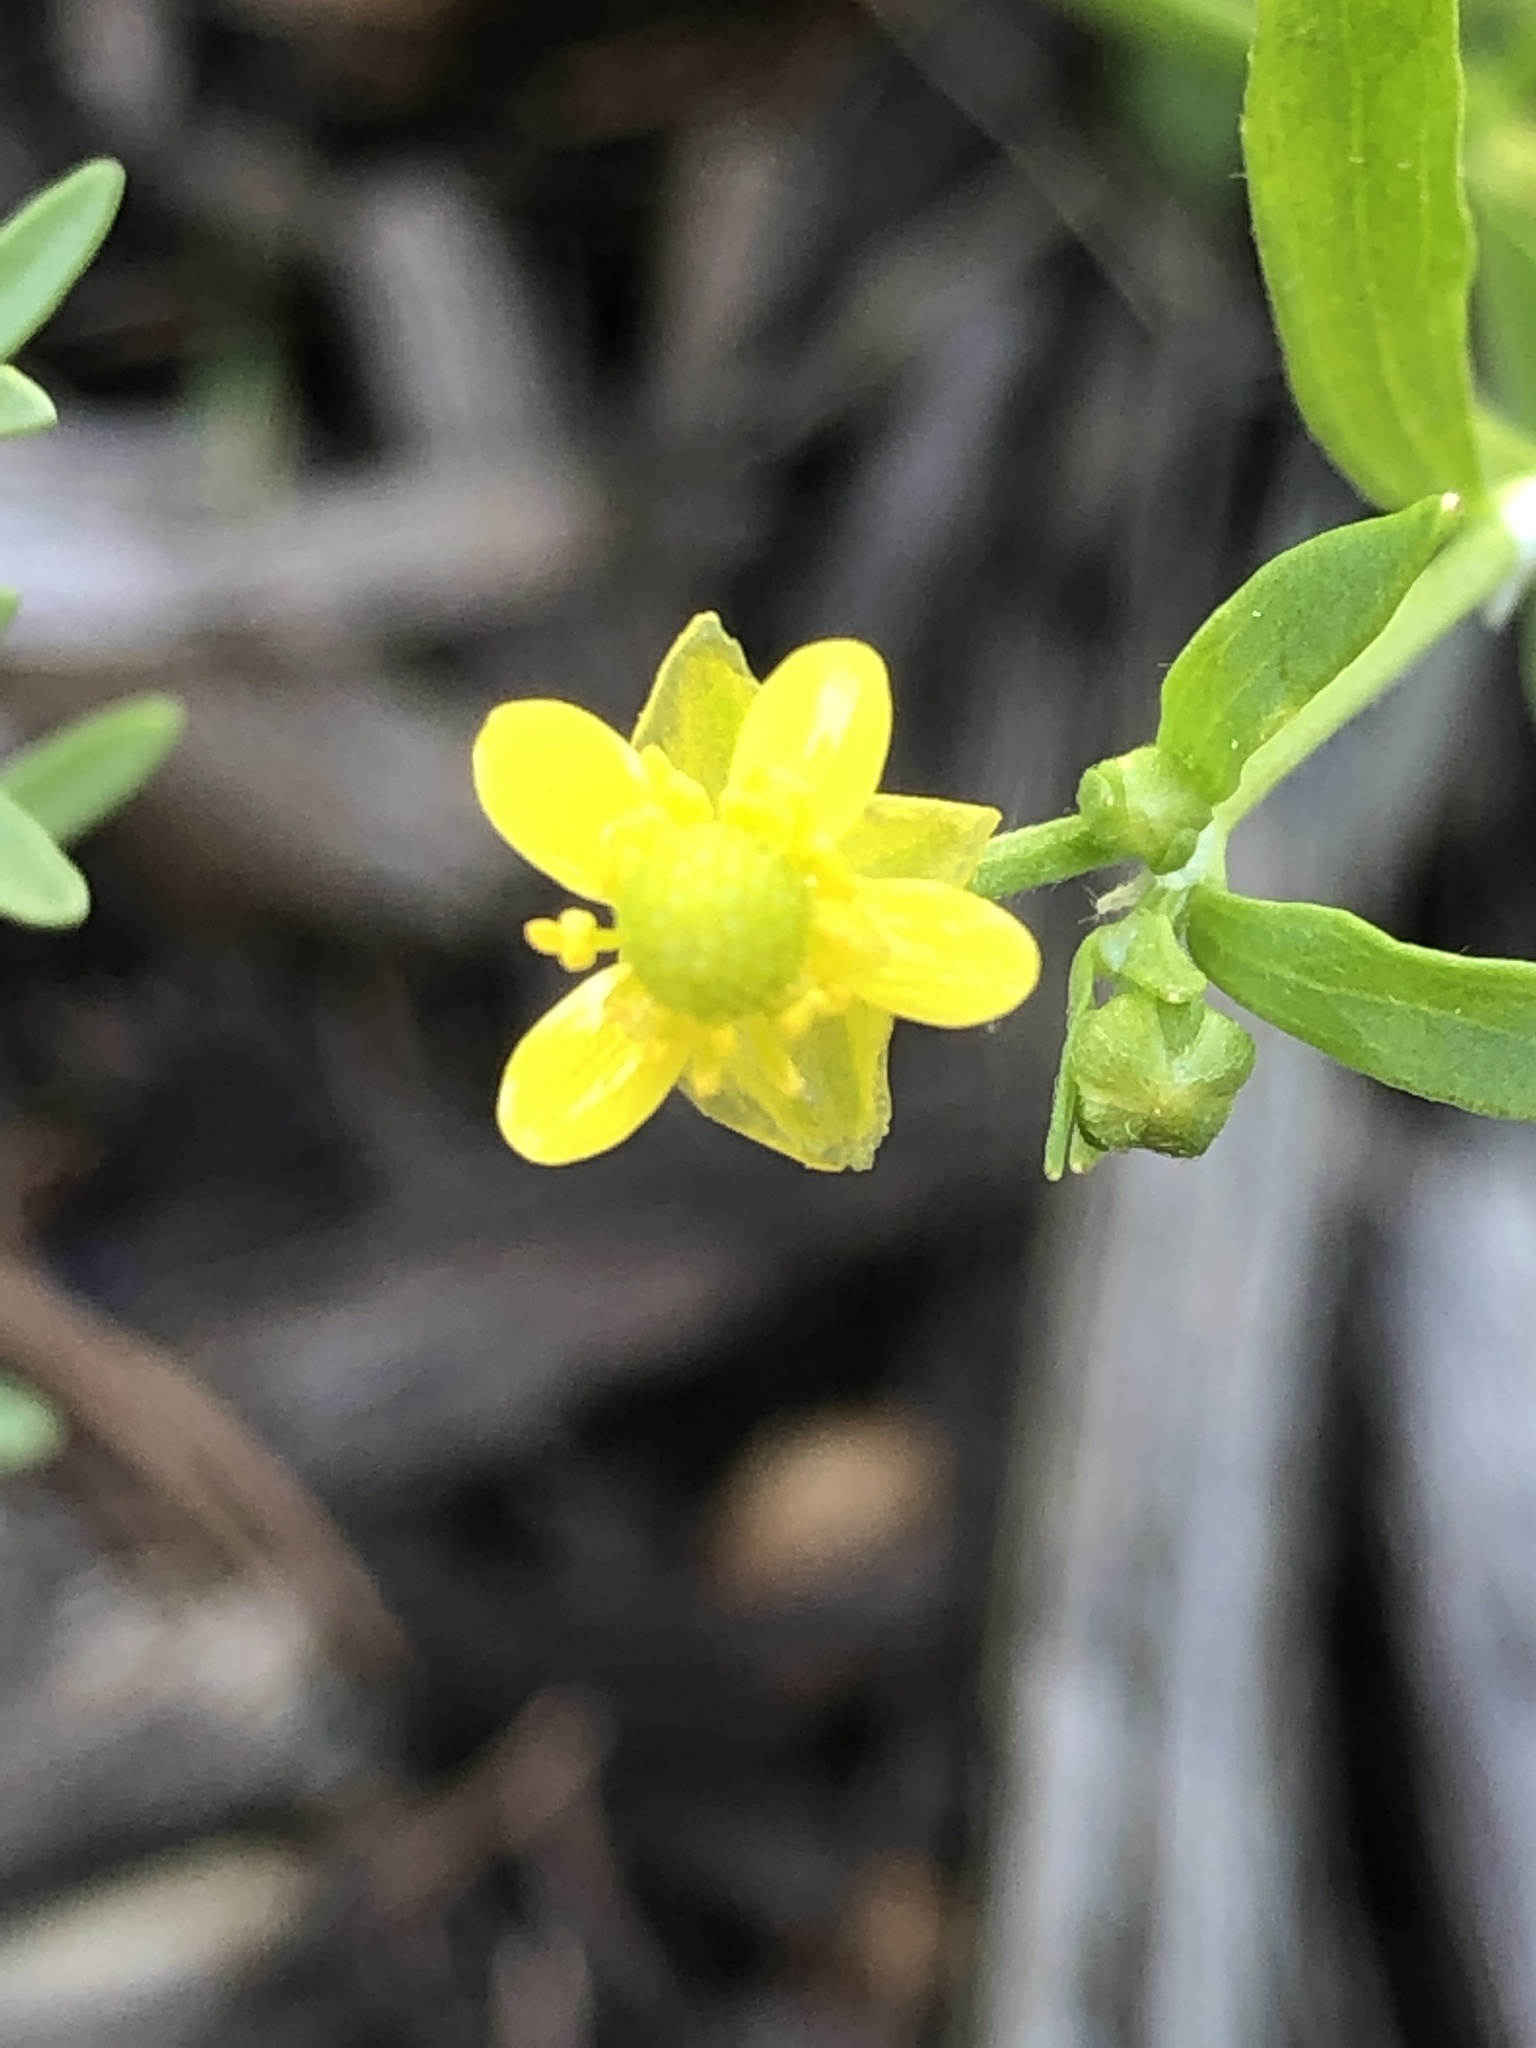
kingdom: Plantae
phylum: Tracheophyta
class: Magnoliopsida
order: Ranunculales
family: Ranunculaceae
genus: Ranunculus
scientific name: Ranunculus sceleratus
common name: Celery-leaved buttercup
